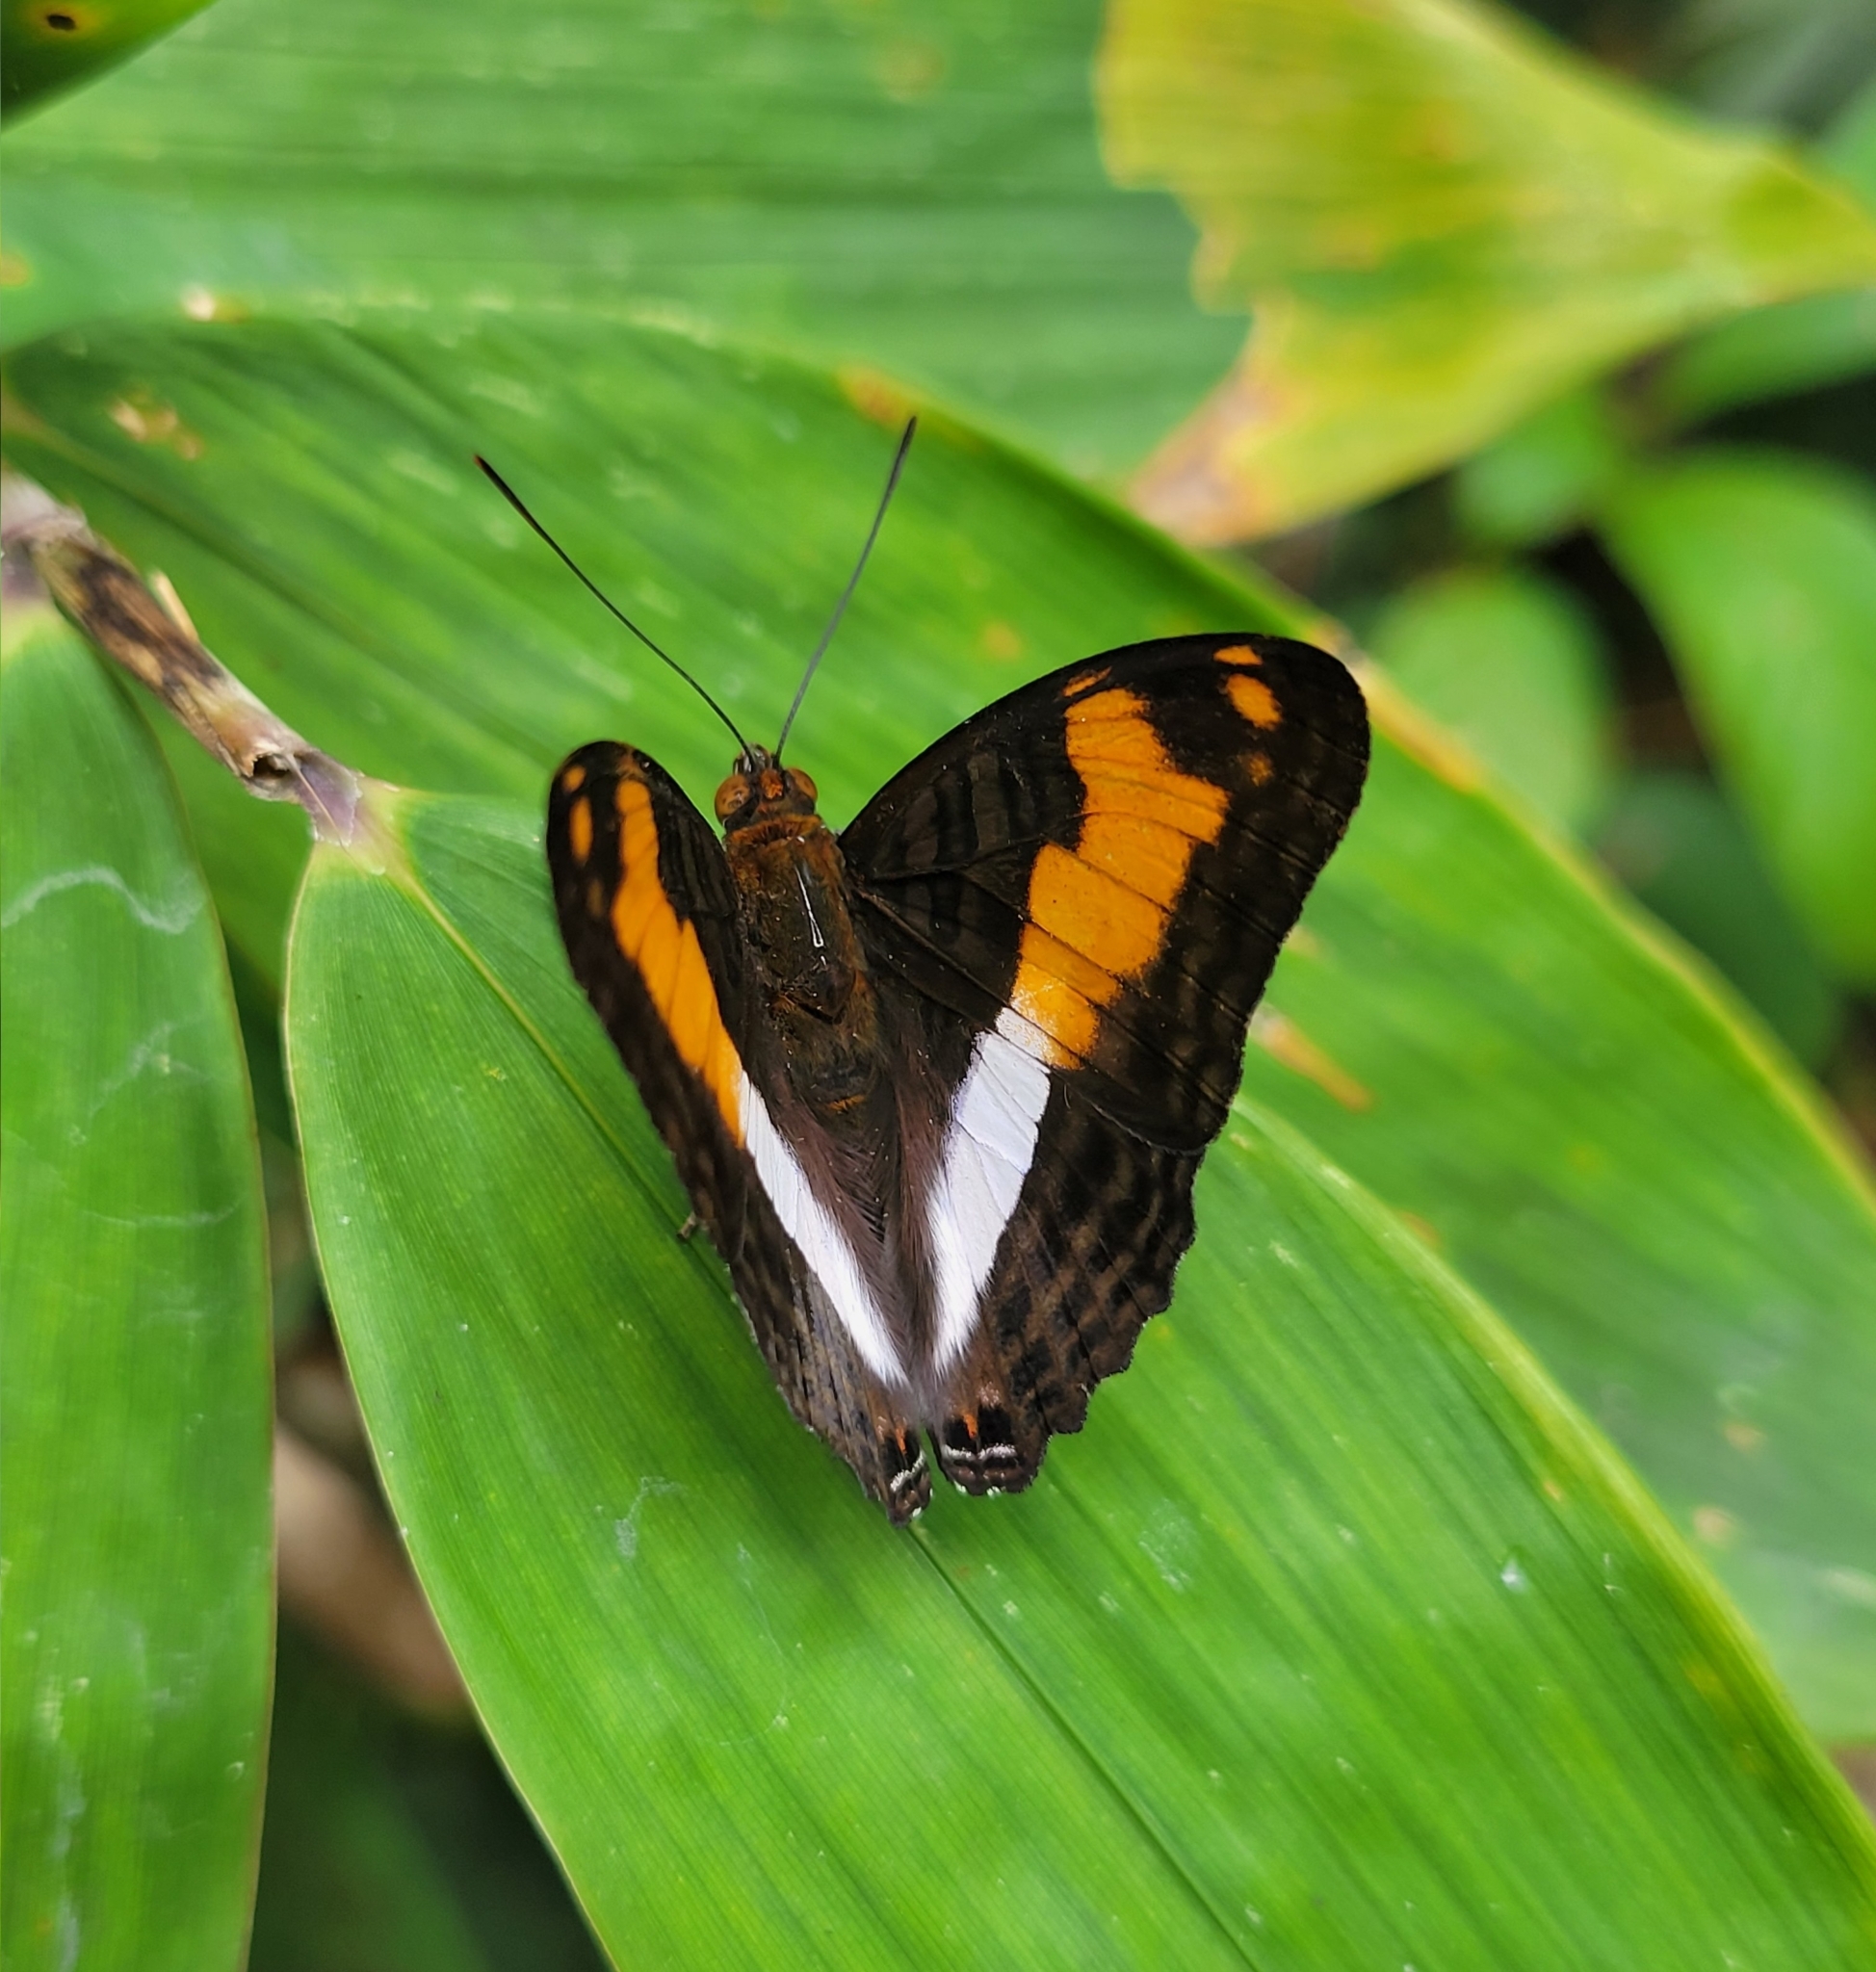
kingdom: Animalia
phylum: Arthropoda
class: Insecta
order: Lepidoptera
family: Nymphalidae
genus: Limenitis
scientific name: Limenitis thesprotia
